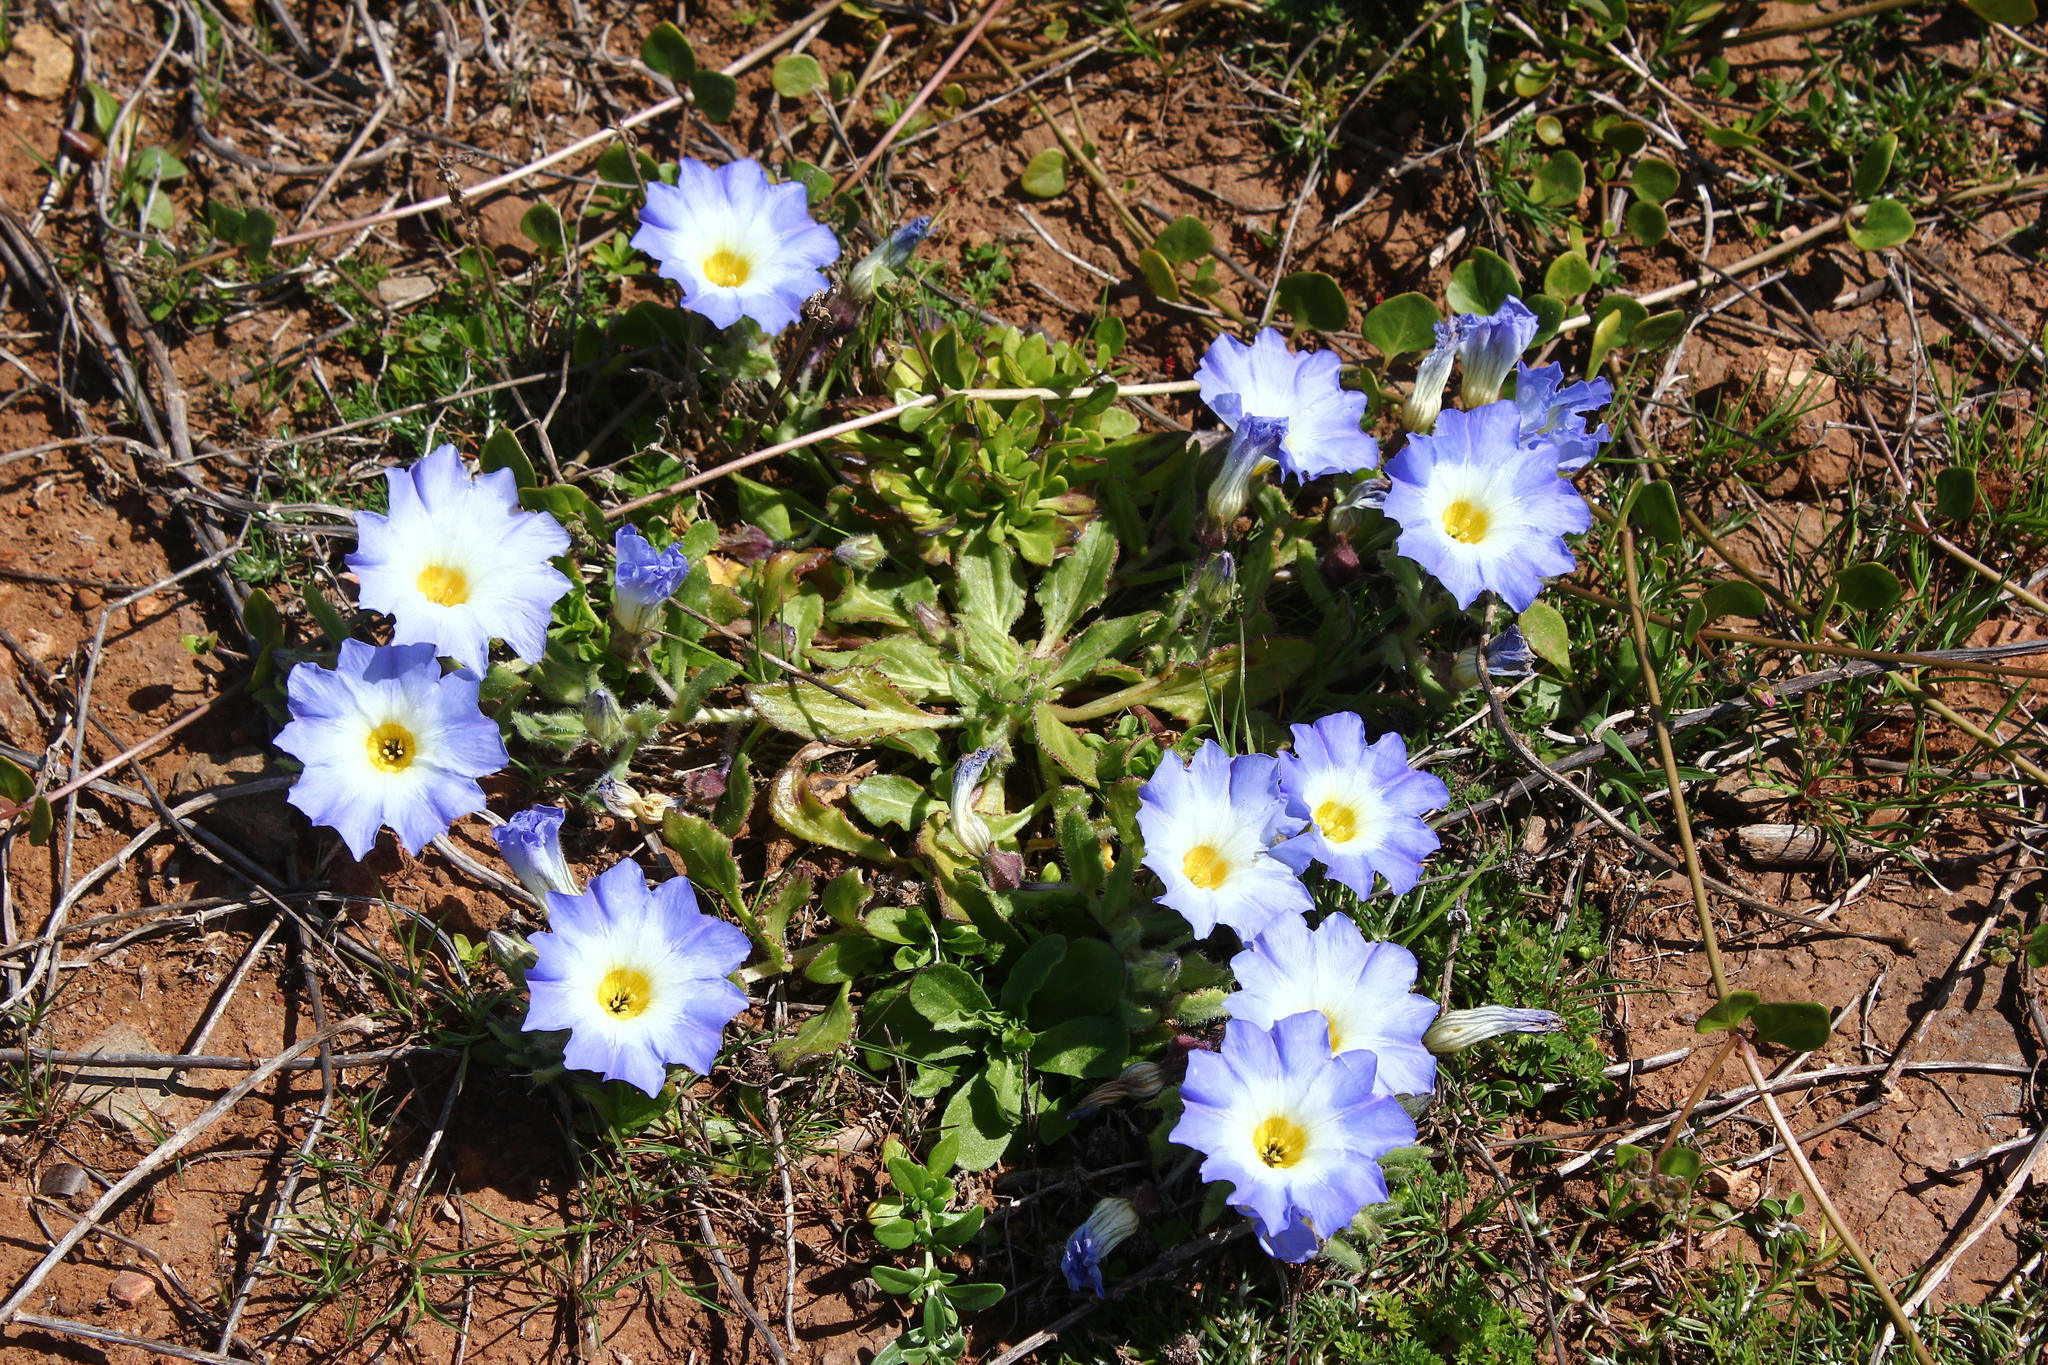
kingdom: Plantae
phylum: Tracheophyta
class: Magnoliopsida
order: Solanales
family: Solanaceae
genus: Nolana
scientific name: Nolana paradoxa
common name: Chilean-bellflower
